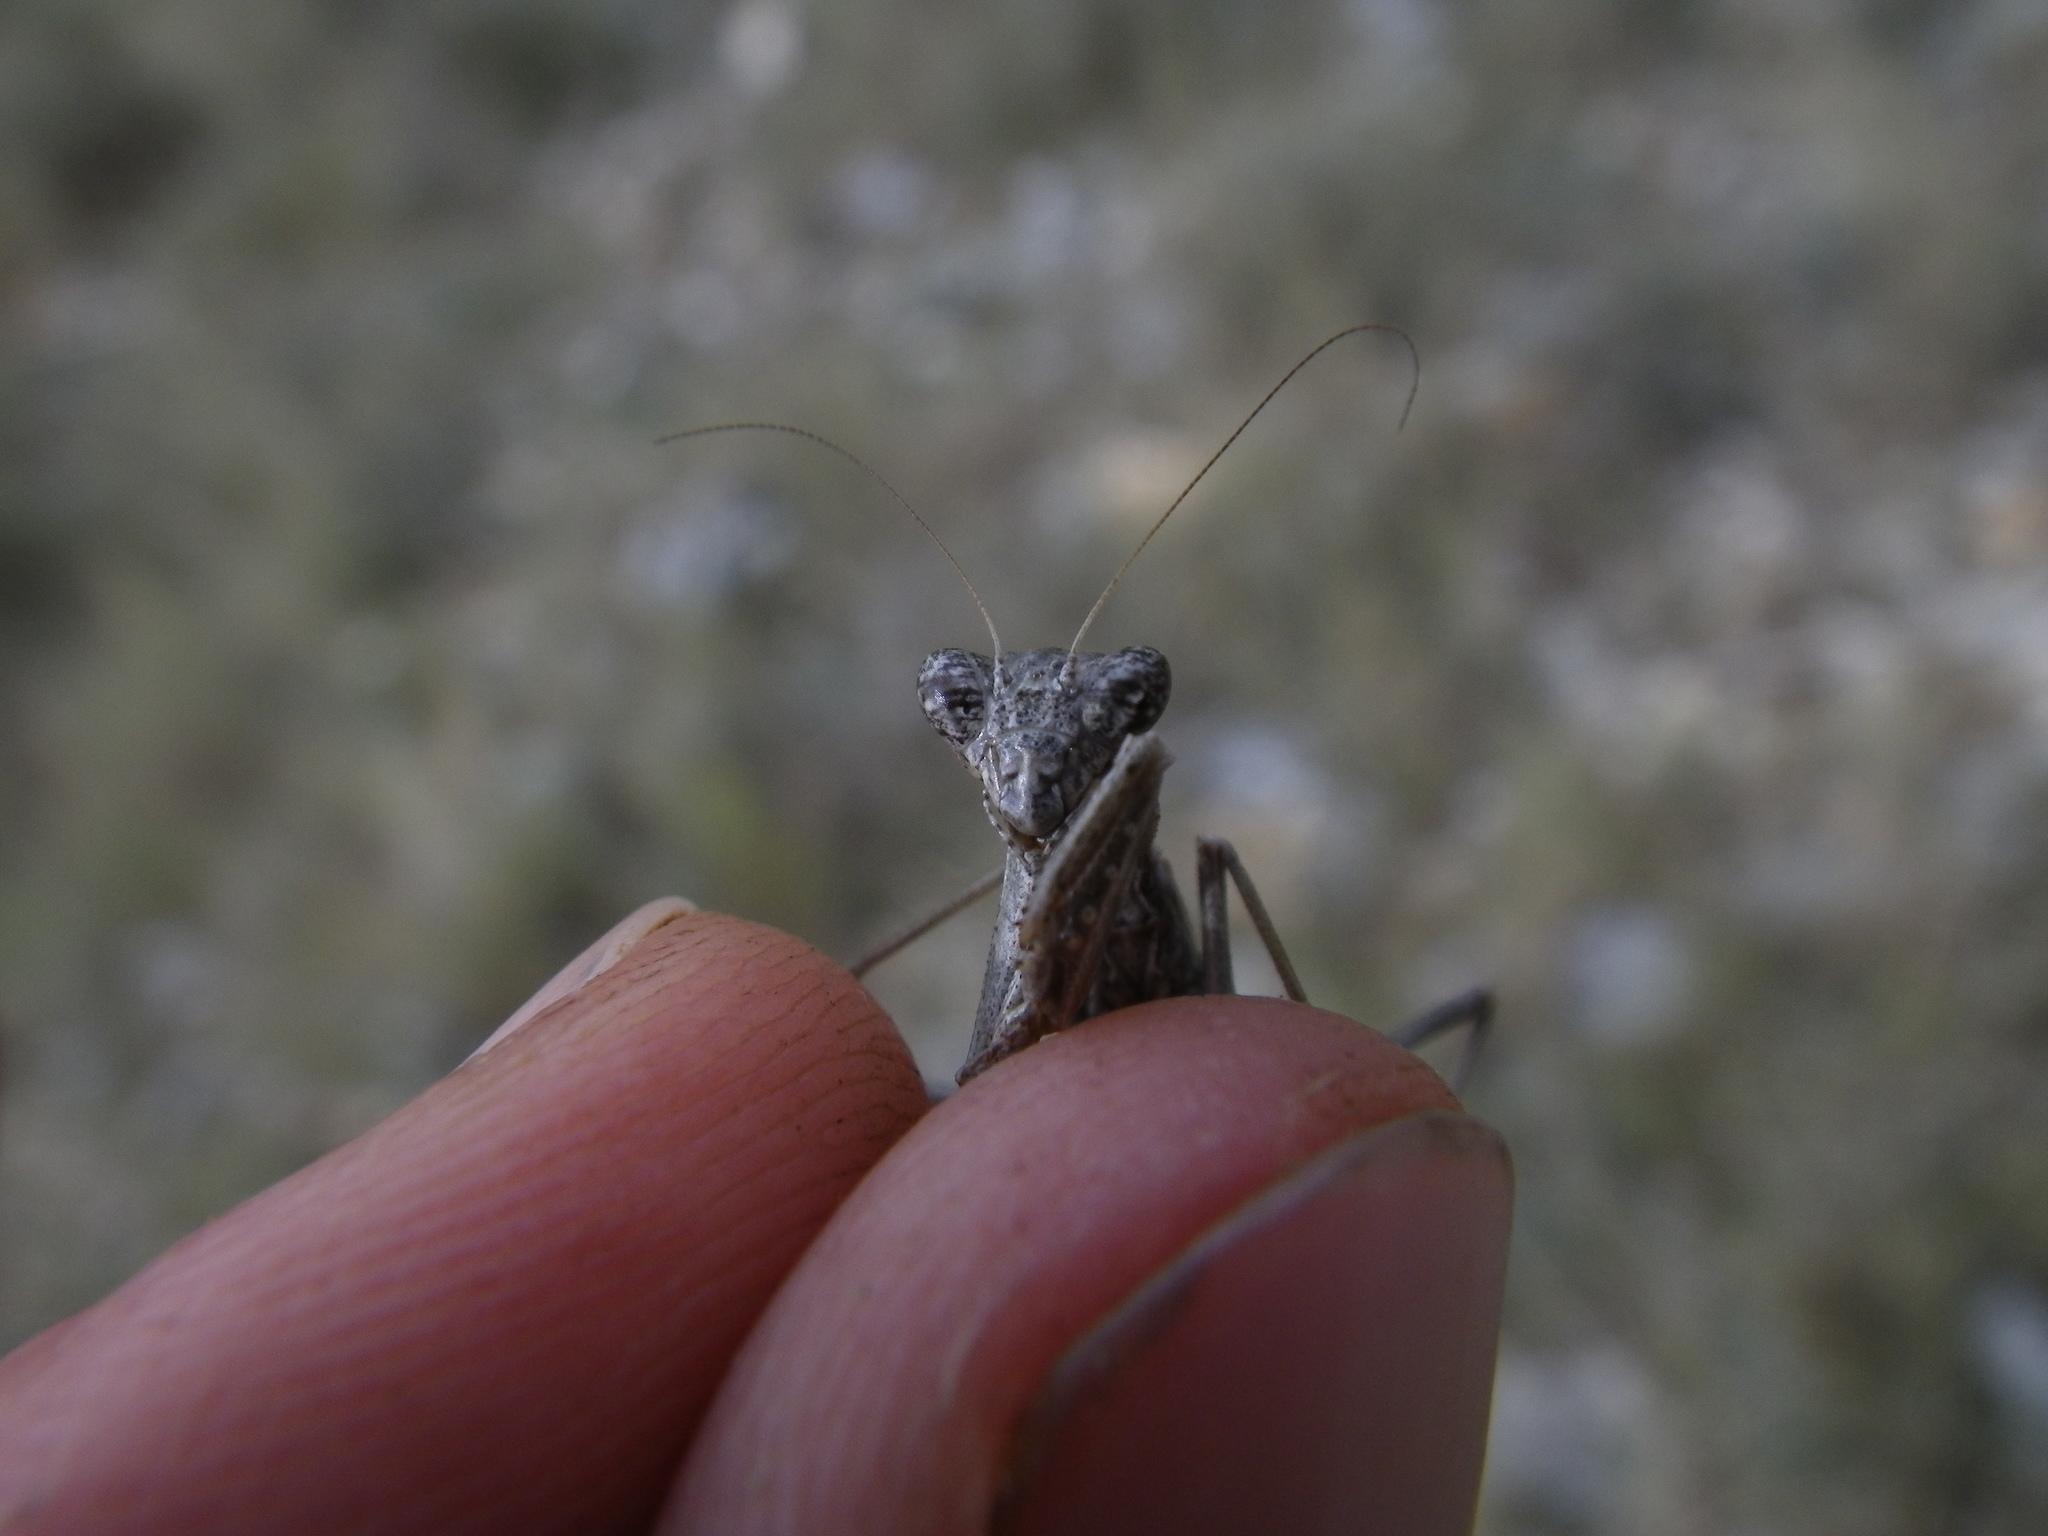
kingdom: Animalia
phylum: Arthropoda
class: Insecta
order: Mantodea
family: Amelidae
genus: Ameles
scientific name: Ameles decolor
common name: Dwarf mantis
